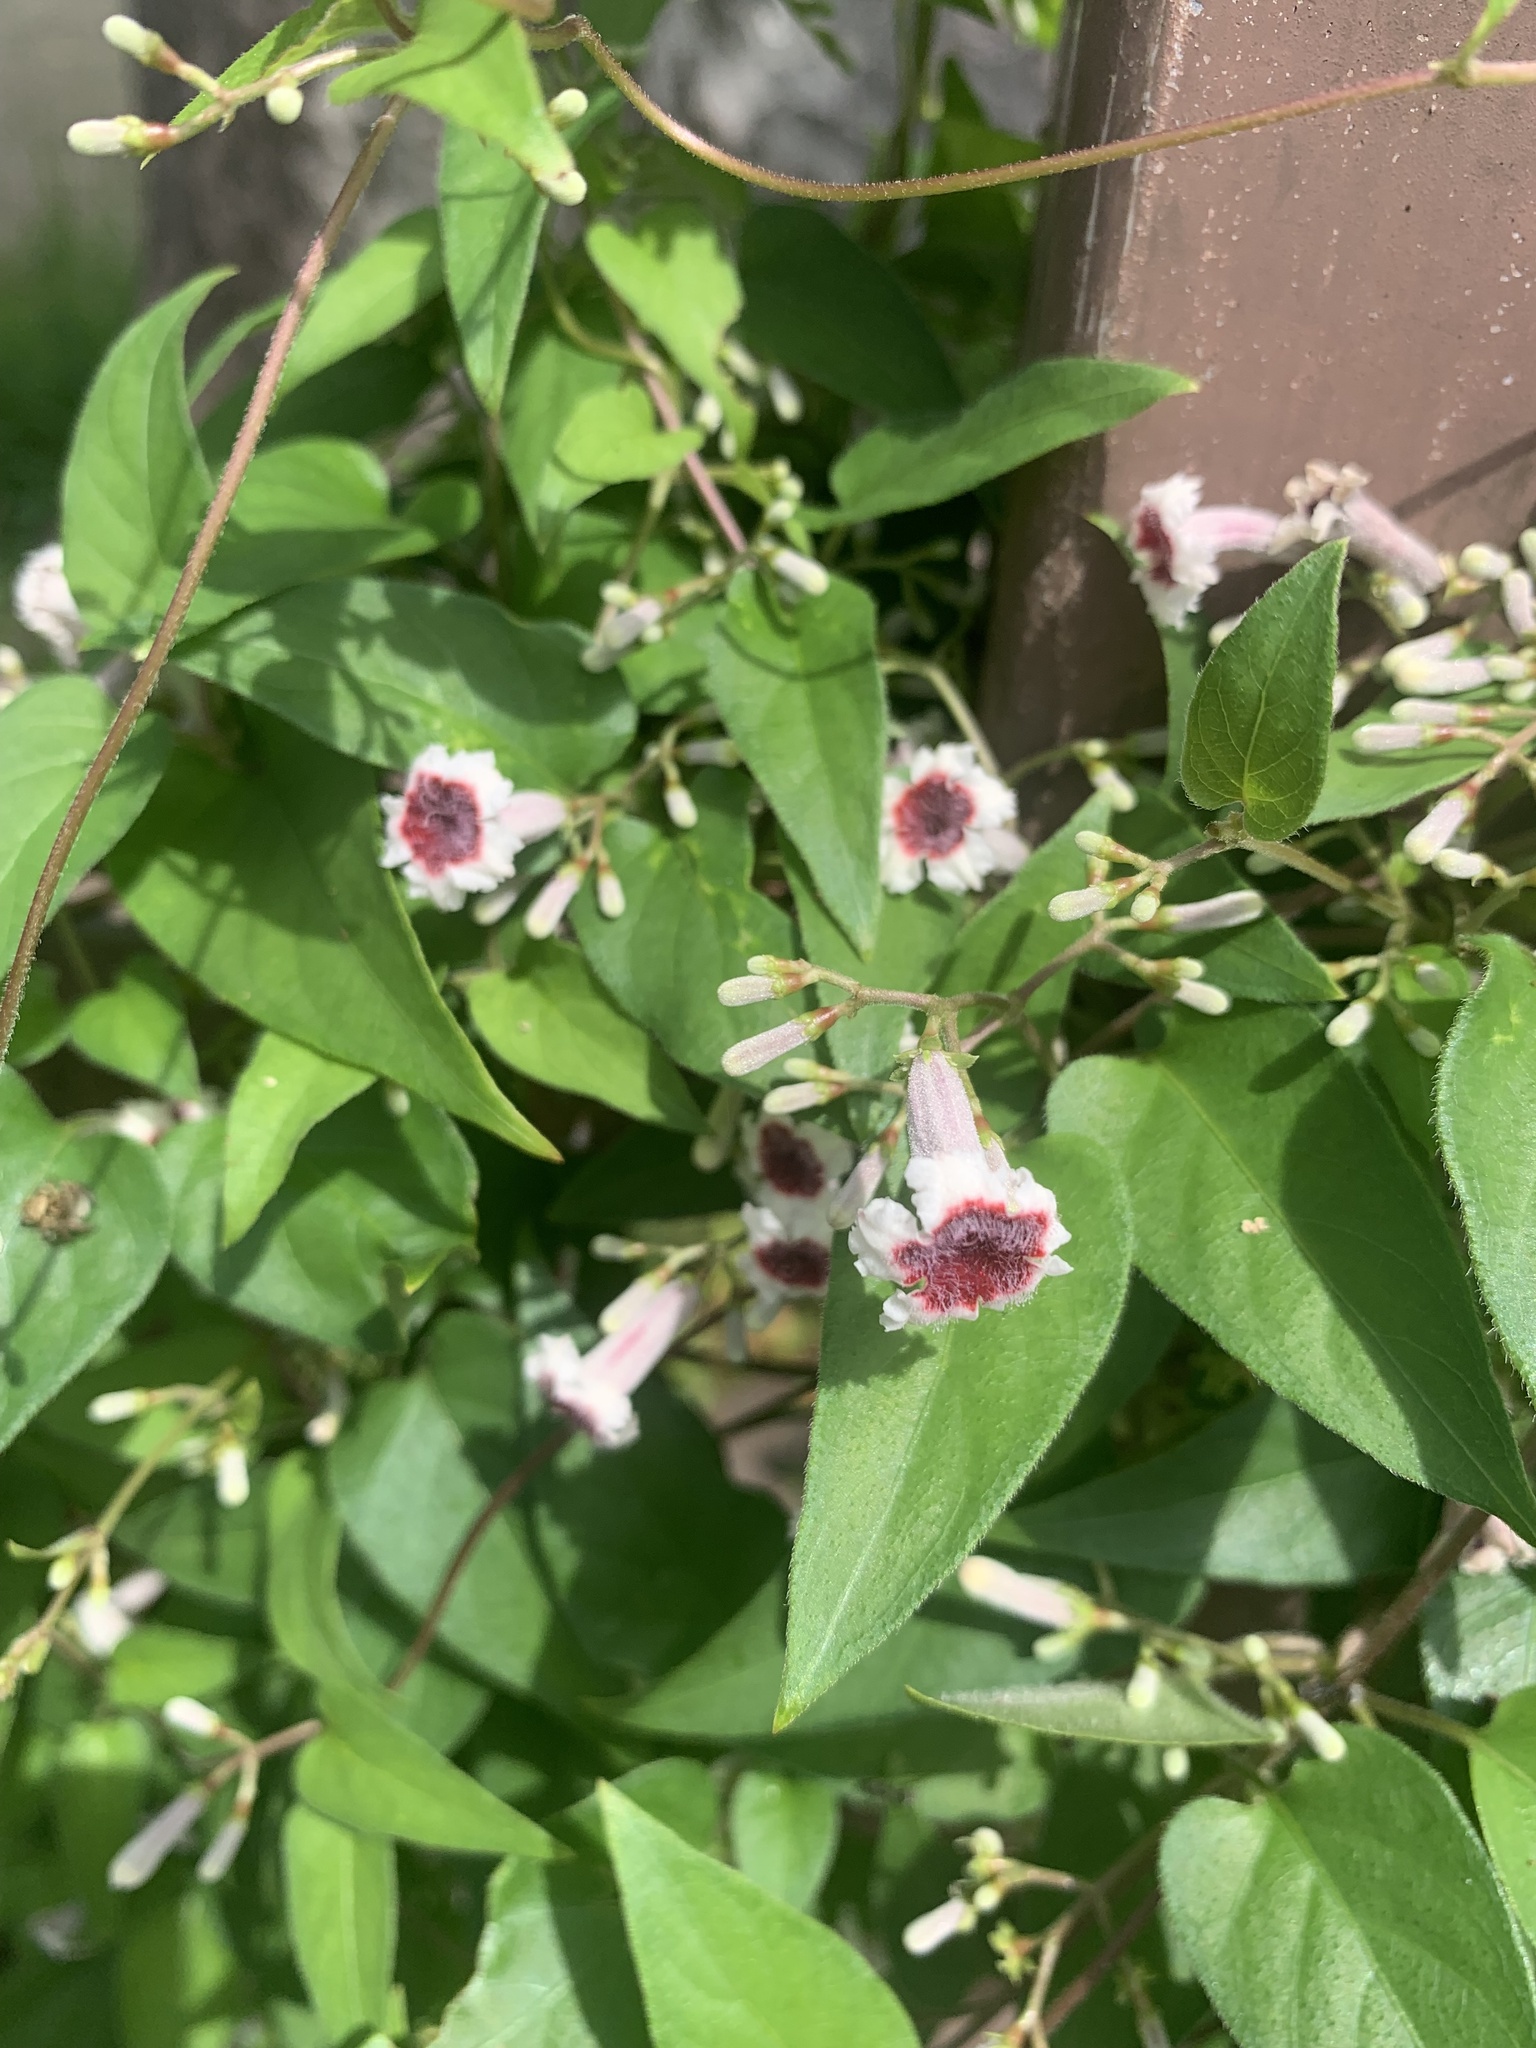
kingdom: Plantae
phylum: Tracheophyta
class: Magnoliopsida
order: Gentianales
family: Rubiaceae
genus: Paederia
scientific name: Paederia foetida
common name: Stinkvine
